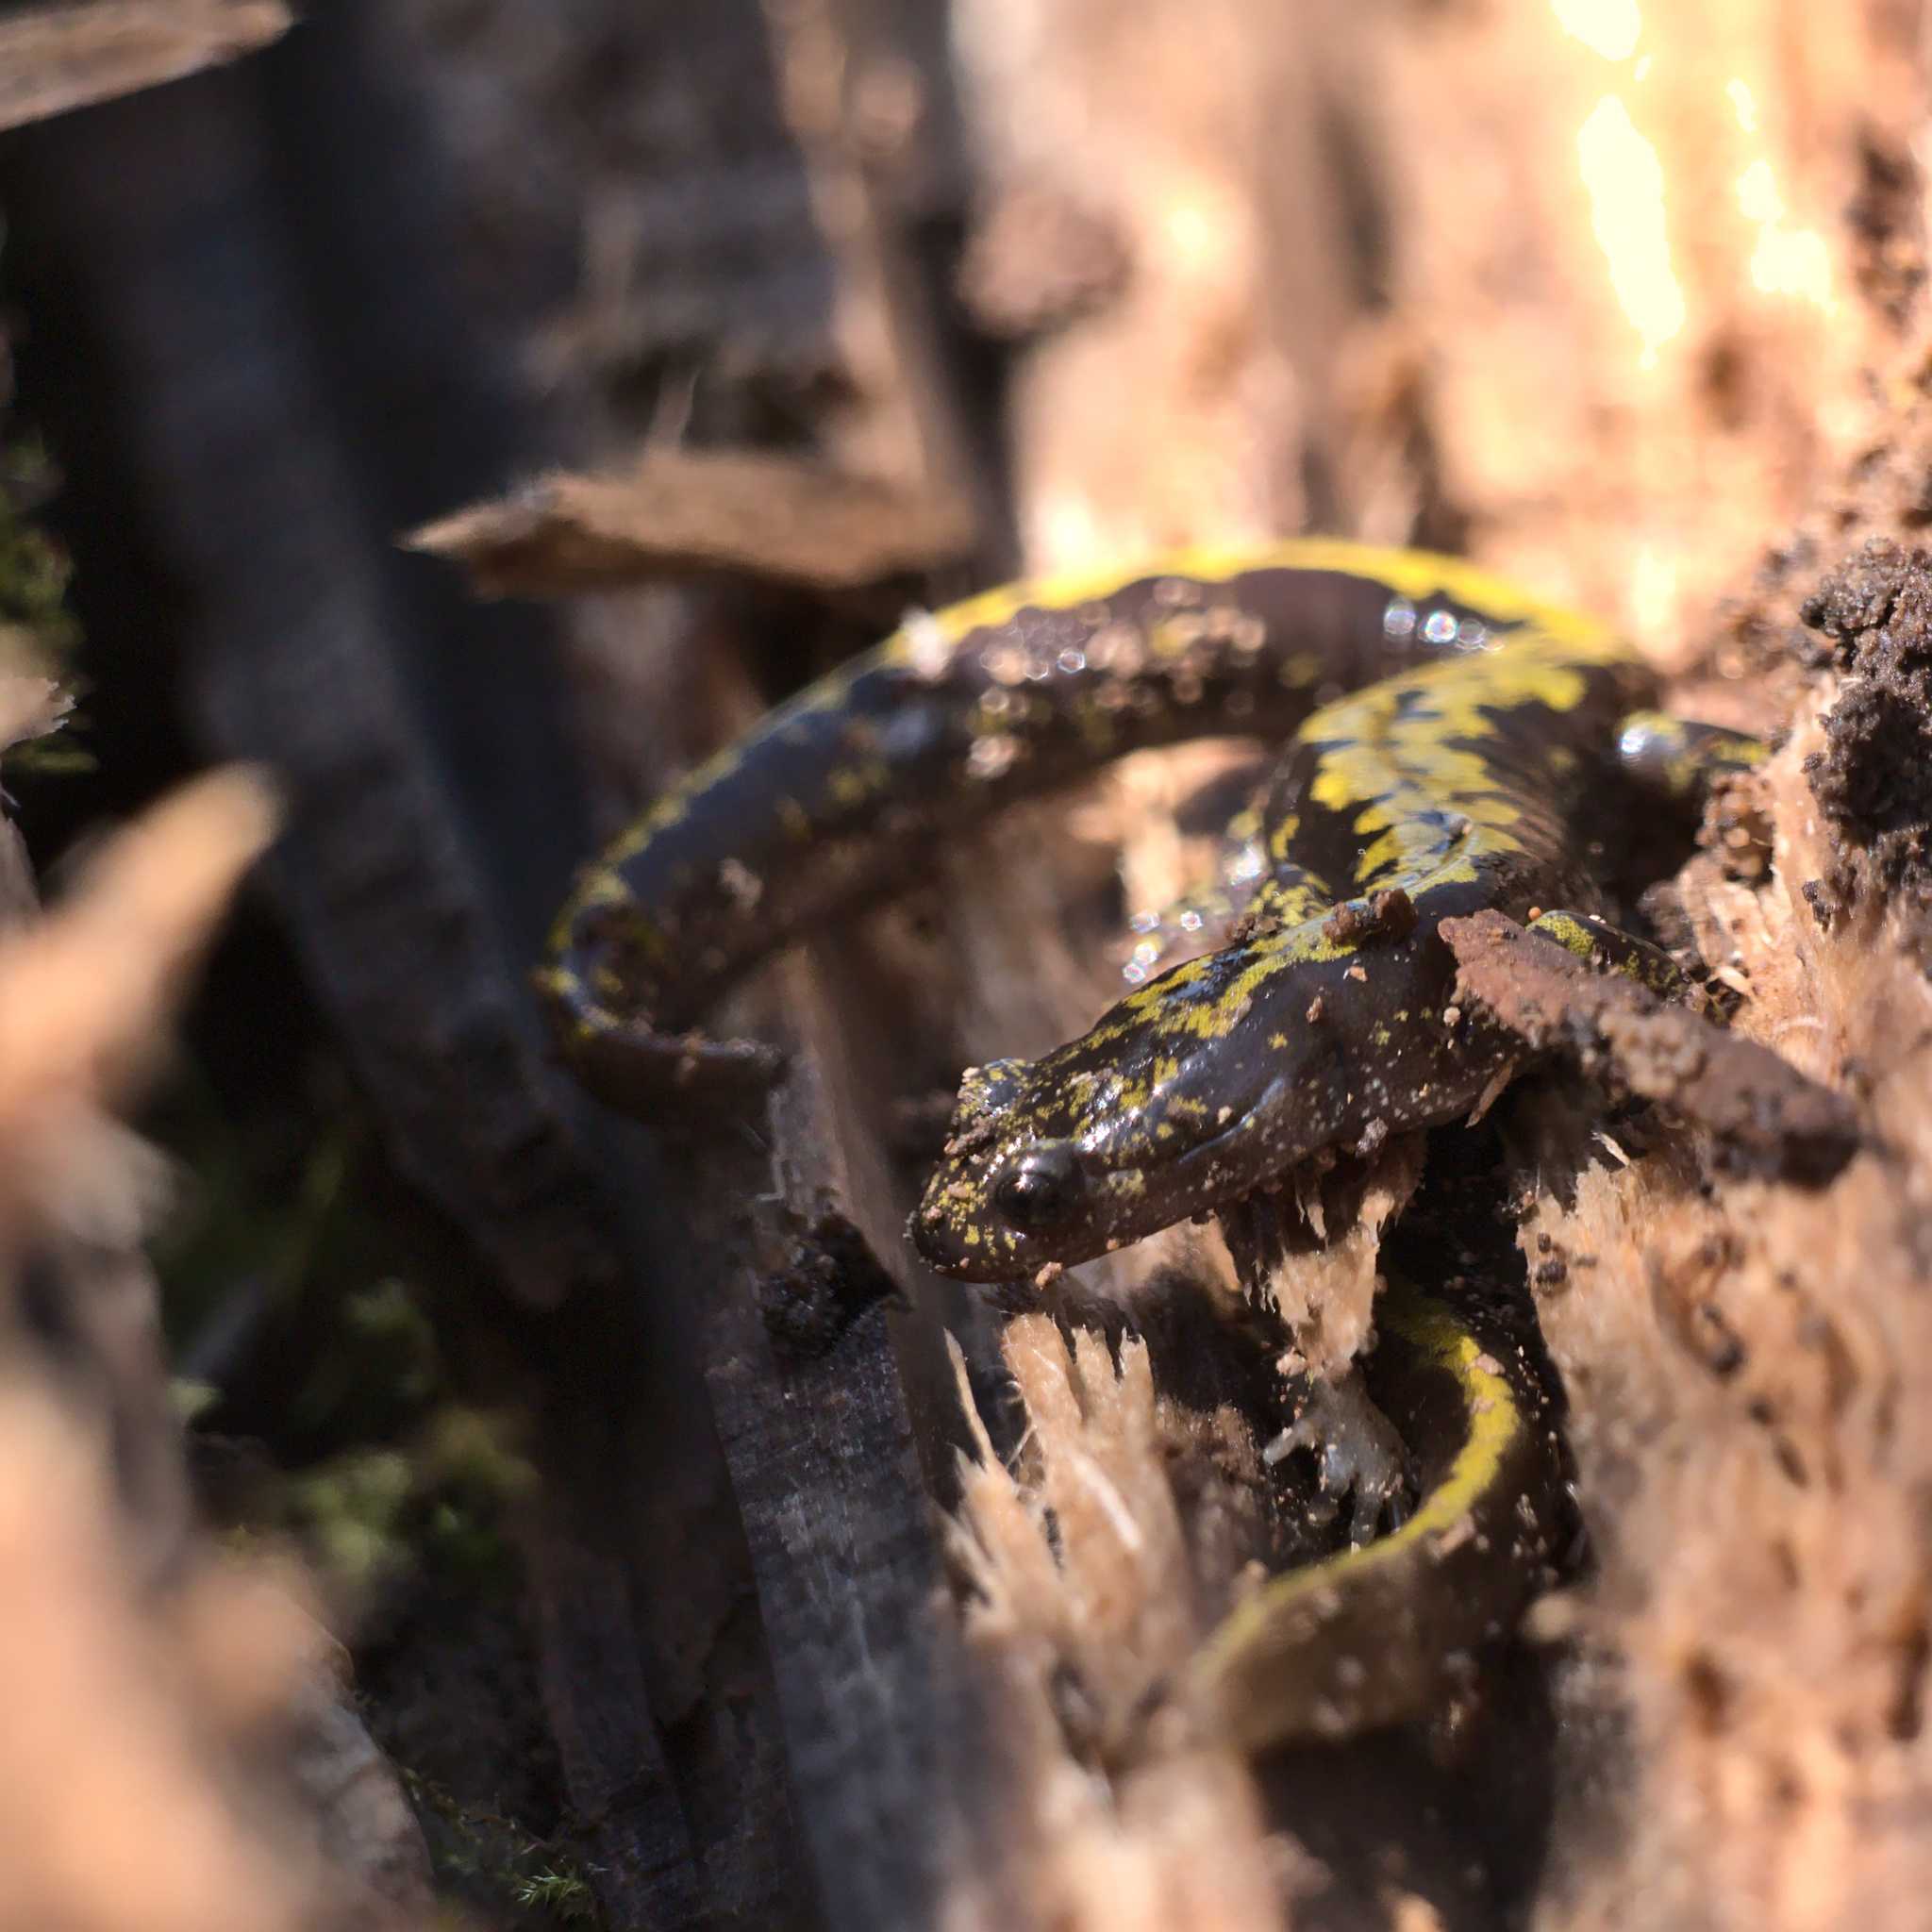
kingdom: Animalia
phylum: Chordata
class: Amphibia
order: Caudata
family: Ambystomatidae
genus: Ambystoma
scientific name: Ambystoma macrodactylum
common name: Long-toed salamander
